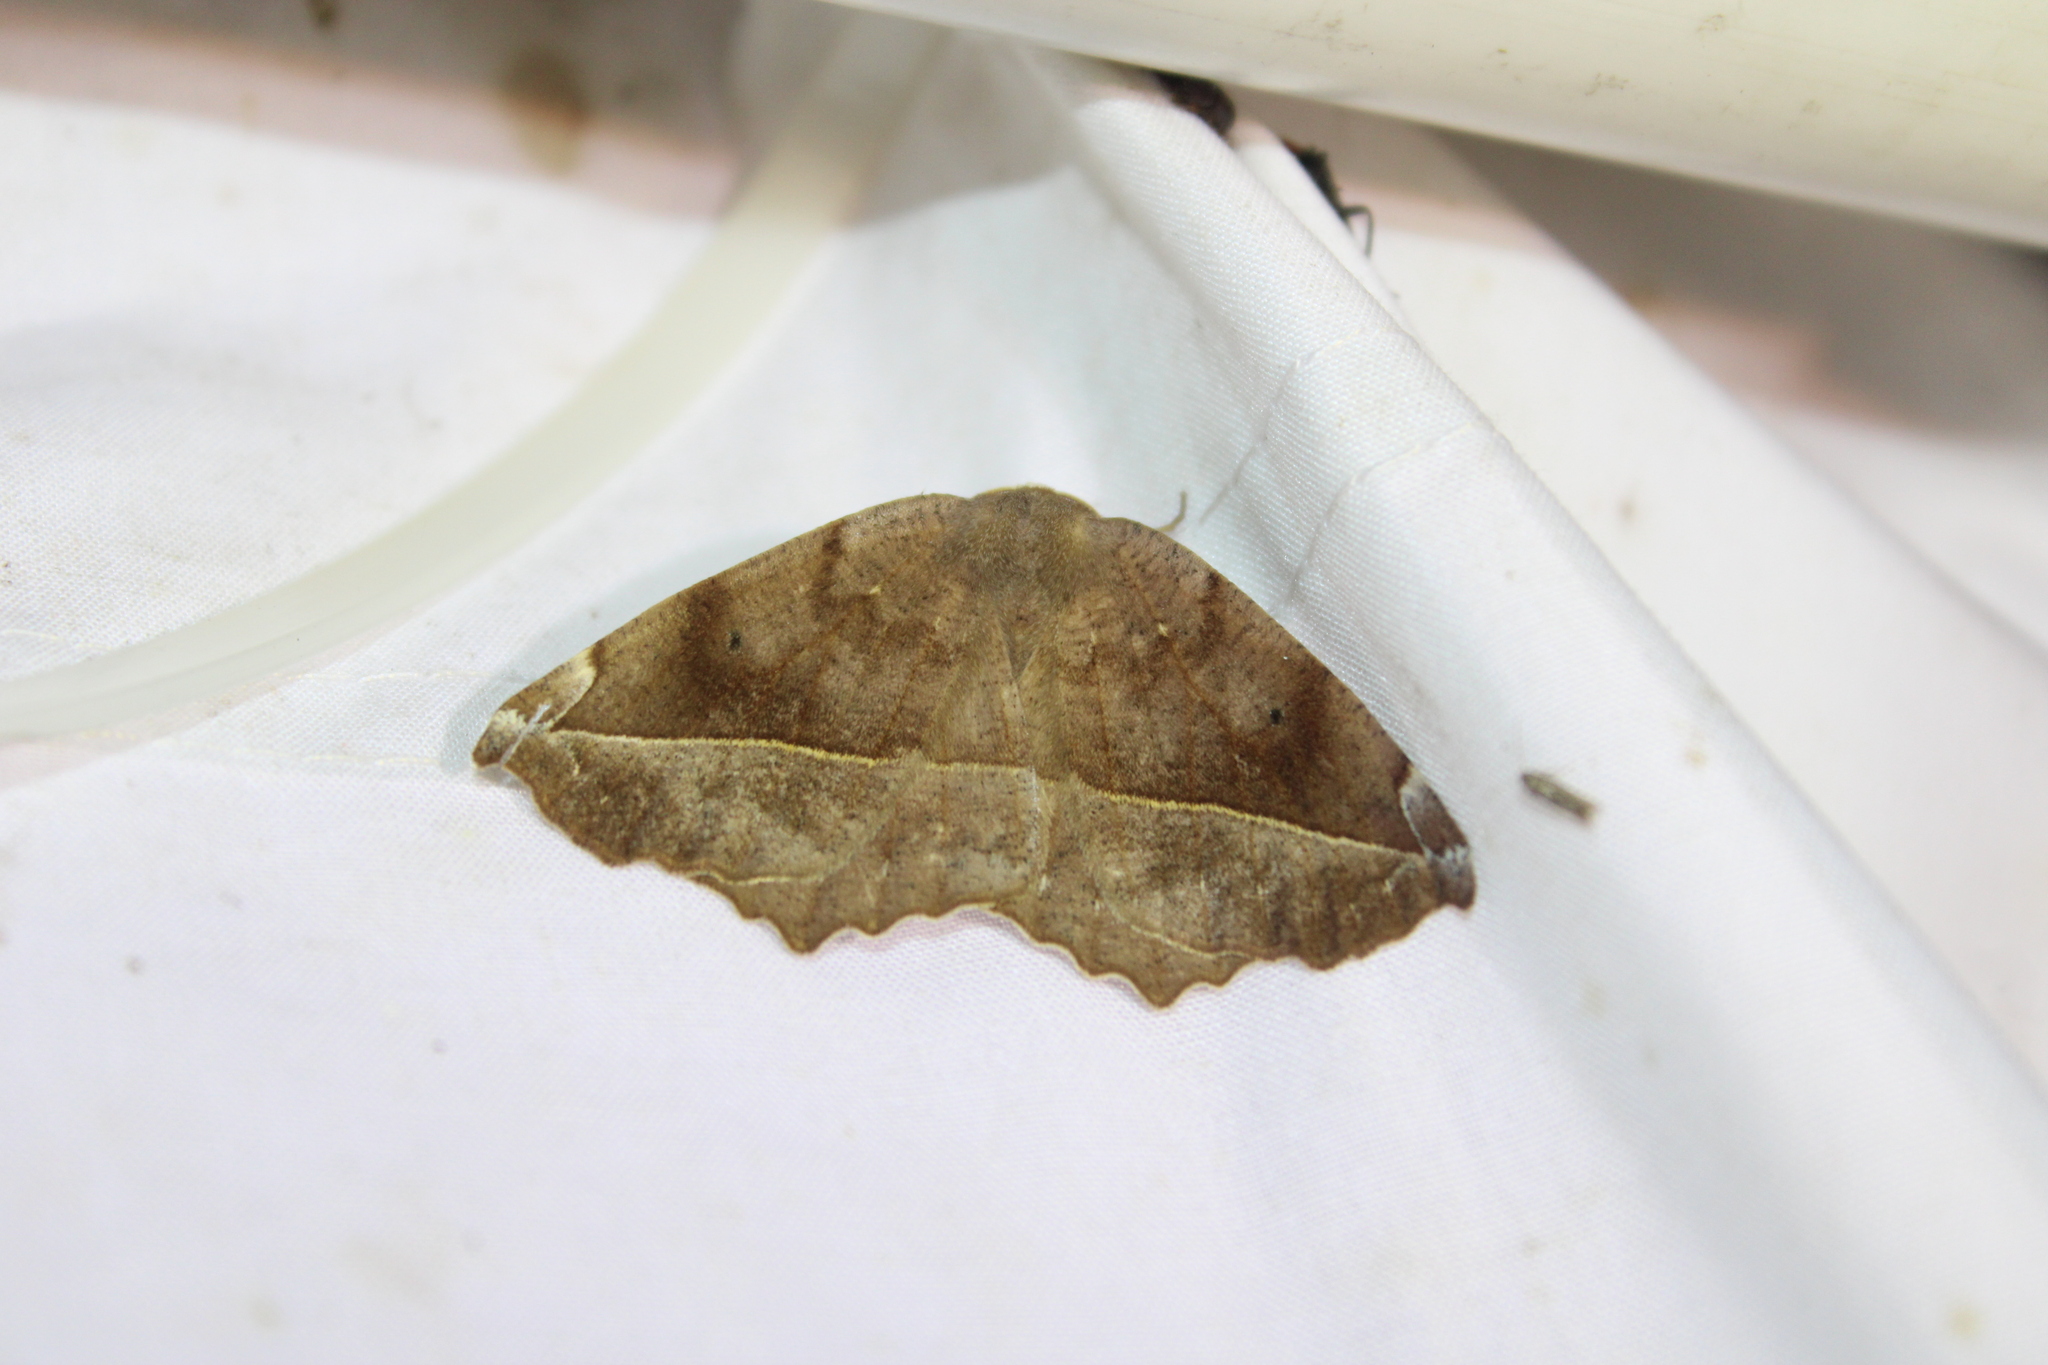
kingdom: Animalia
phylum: Arthropoda
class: Insecta
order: Lepidoptera
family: Geometridae
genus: Eutrapela
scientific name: Eutrapela clemataria
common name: Curved-toothed geometer
